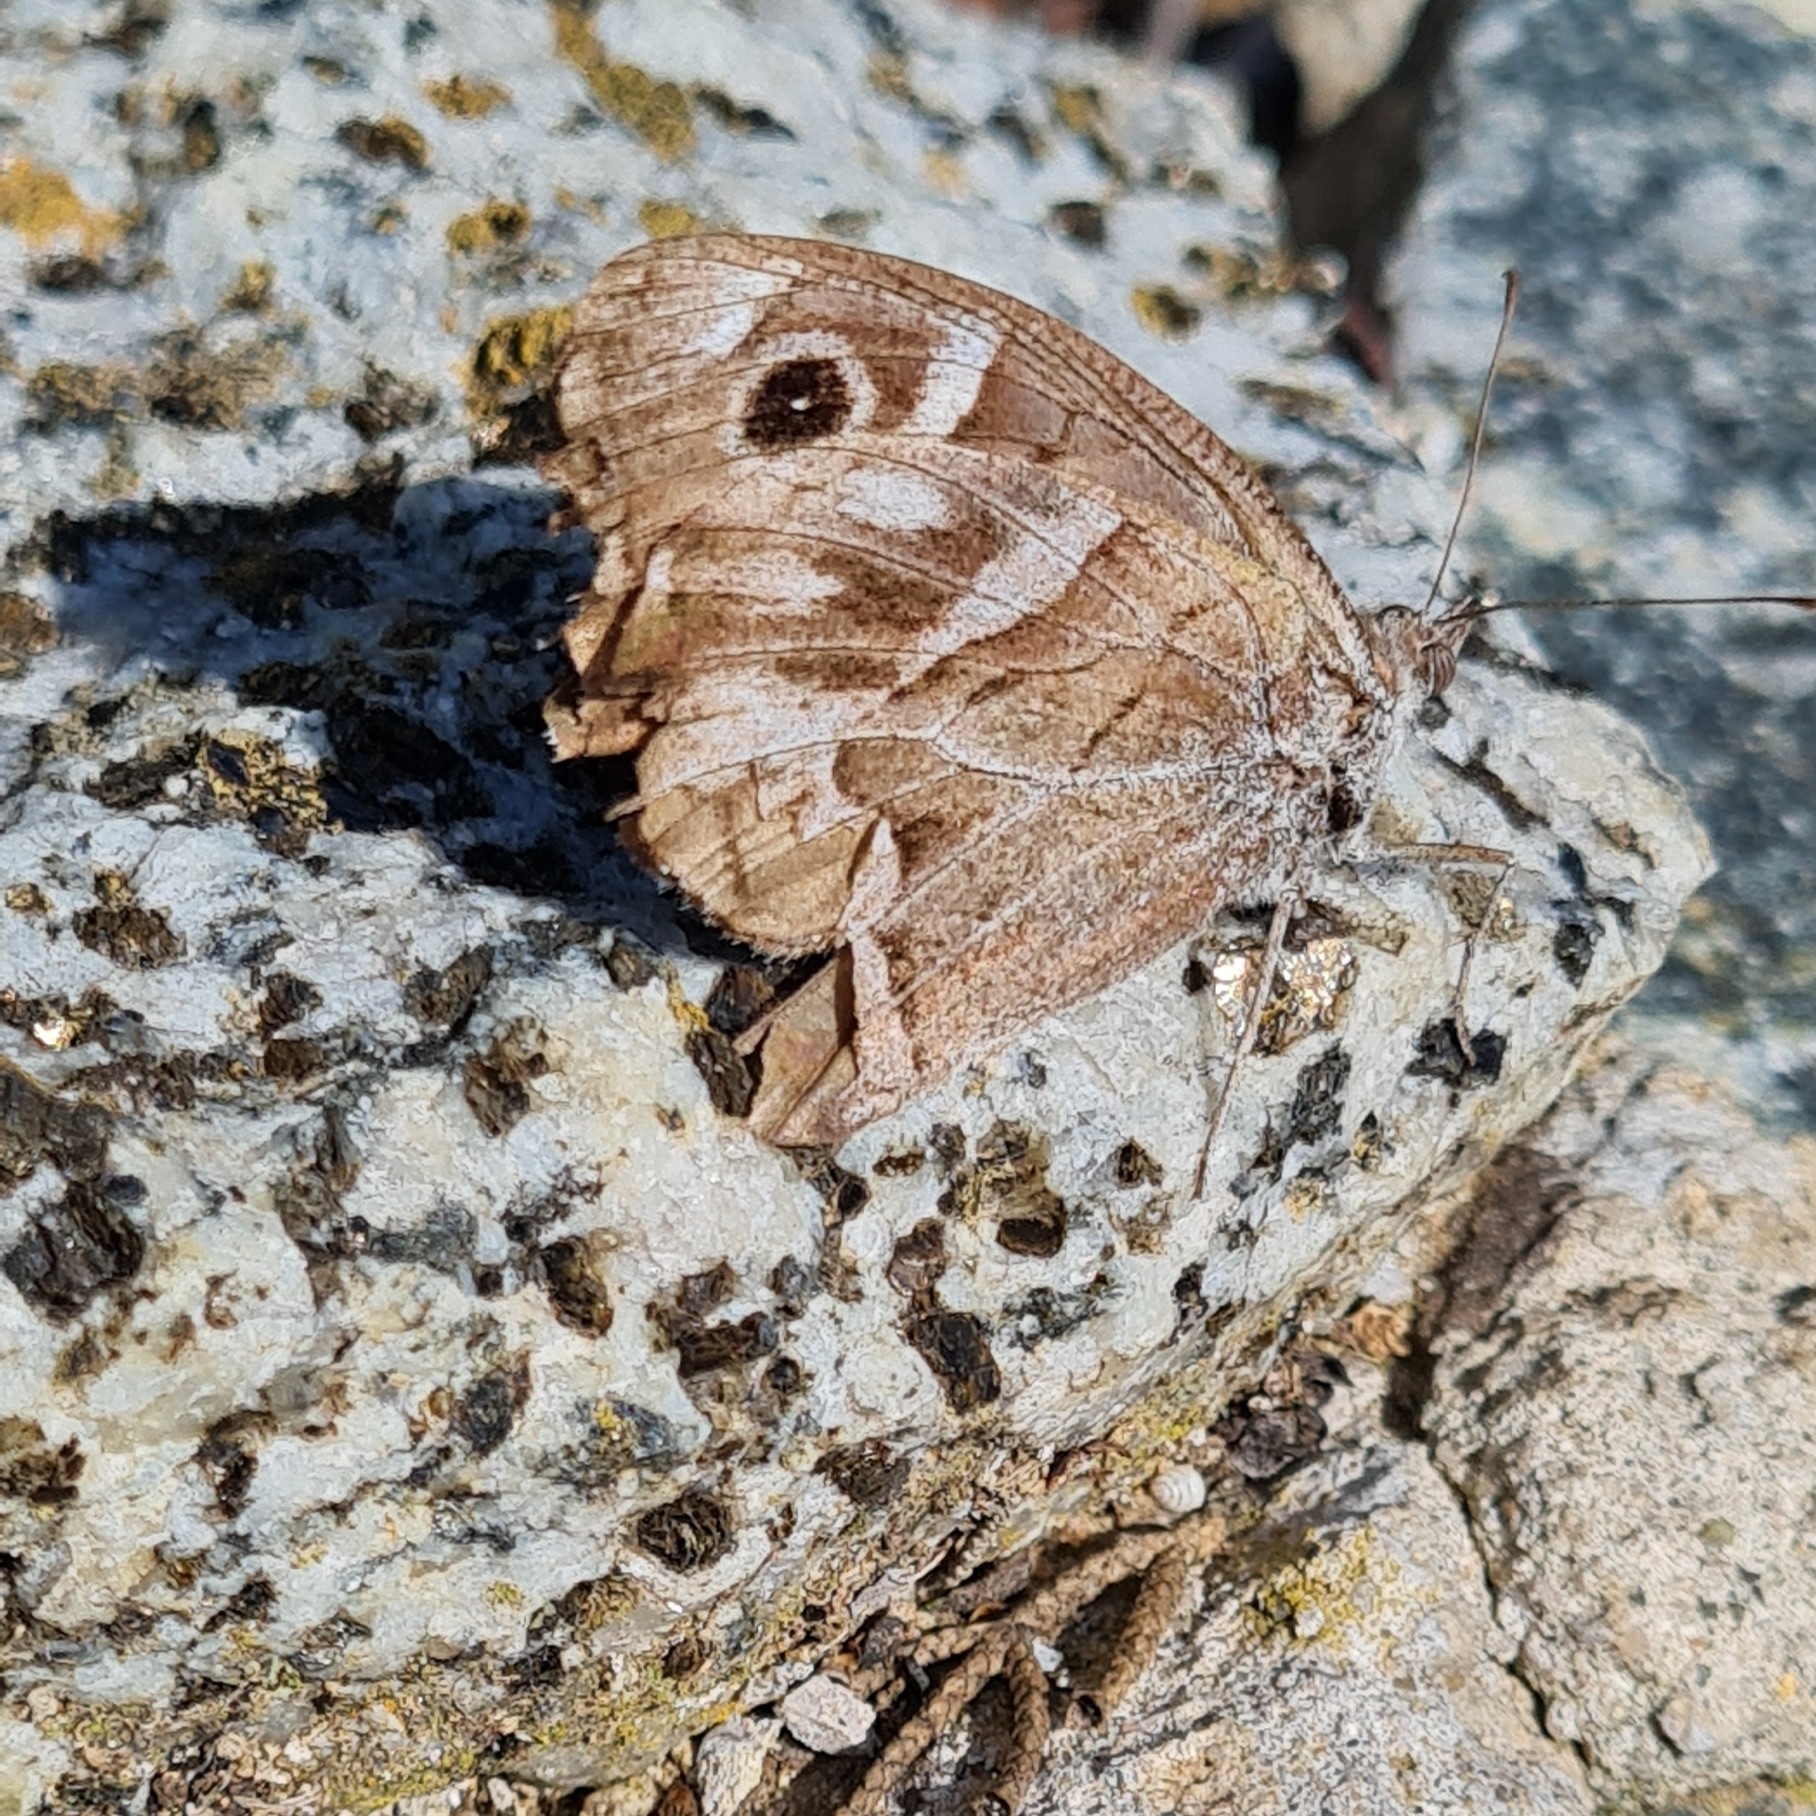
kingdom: Animalia
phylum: Arthropoda
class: Insecta
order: Lepidoptera
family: Nymphalidae
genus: Hipparchia
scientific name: Hipparchia fidia
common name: Striped grayling
